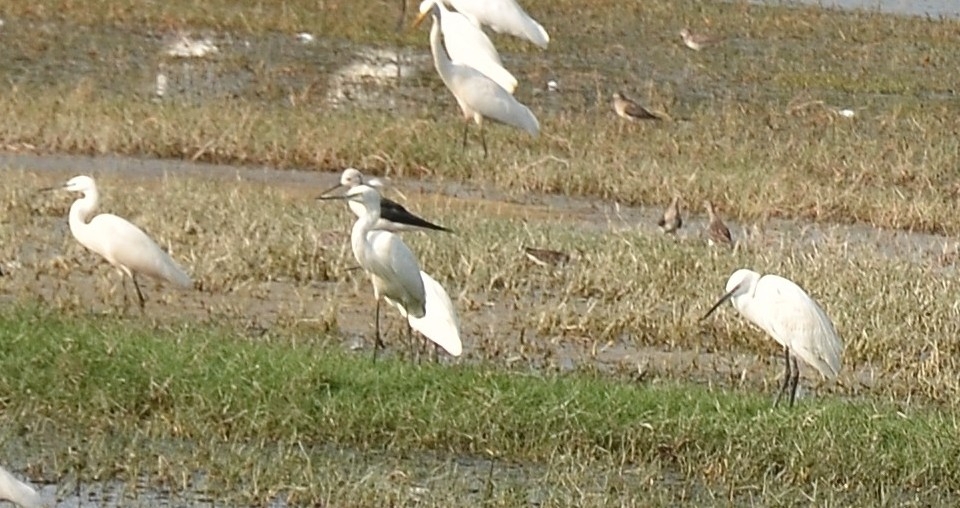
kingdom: Animalia
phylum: Chordata
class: Aves
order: Pelecaniformes
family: Ardeidae
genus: Egretta
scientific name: Egretta garzetta
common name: Little egret
